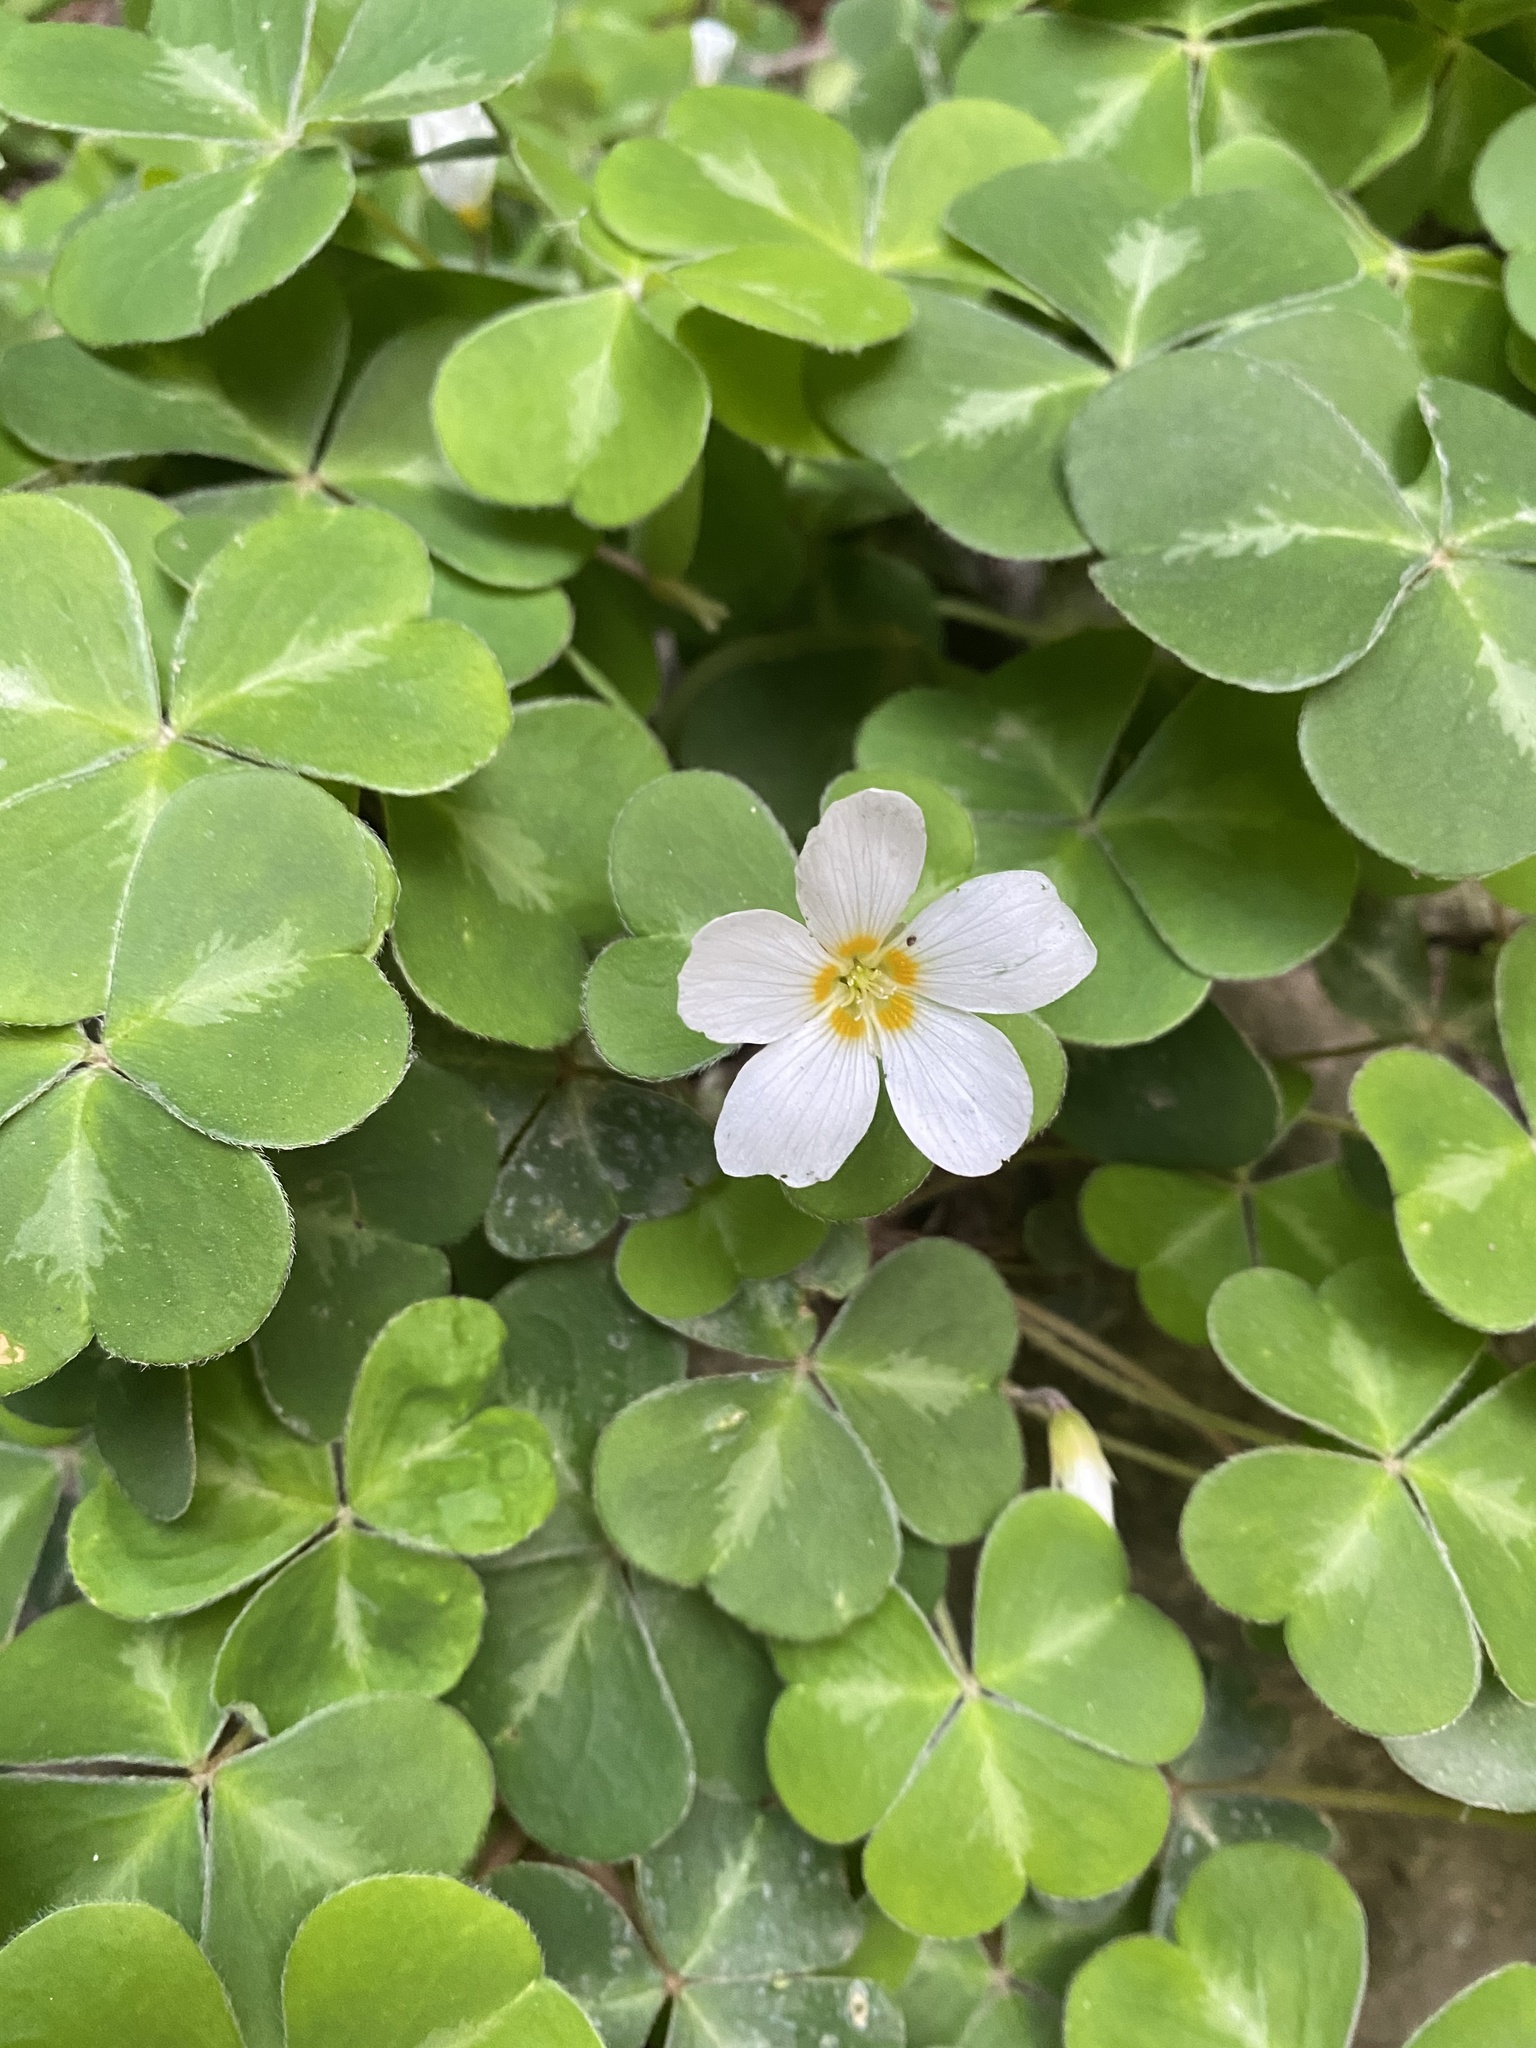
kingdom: Plantae
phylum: Tracheophyta
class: Magnoliopsida
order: Oxalidales
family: Oxalidaceae
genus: Oxalis
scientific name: Oxalis oregana
